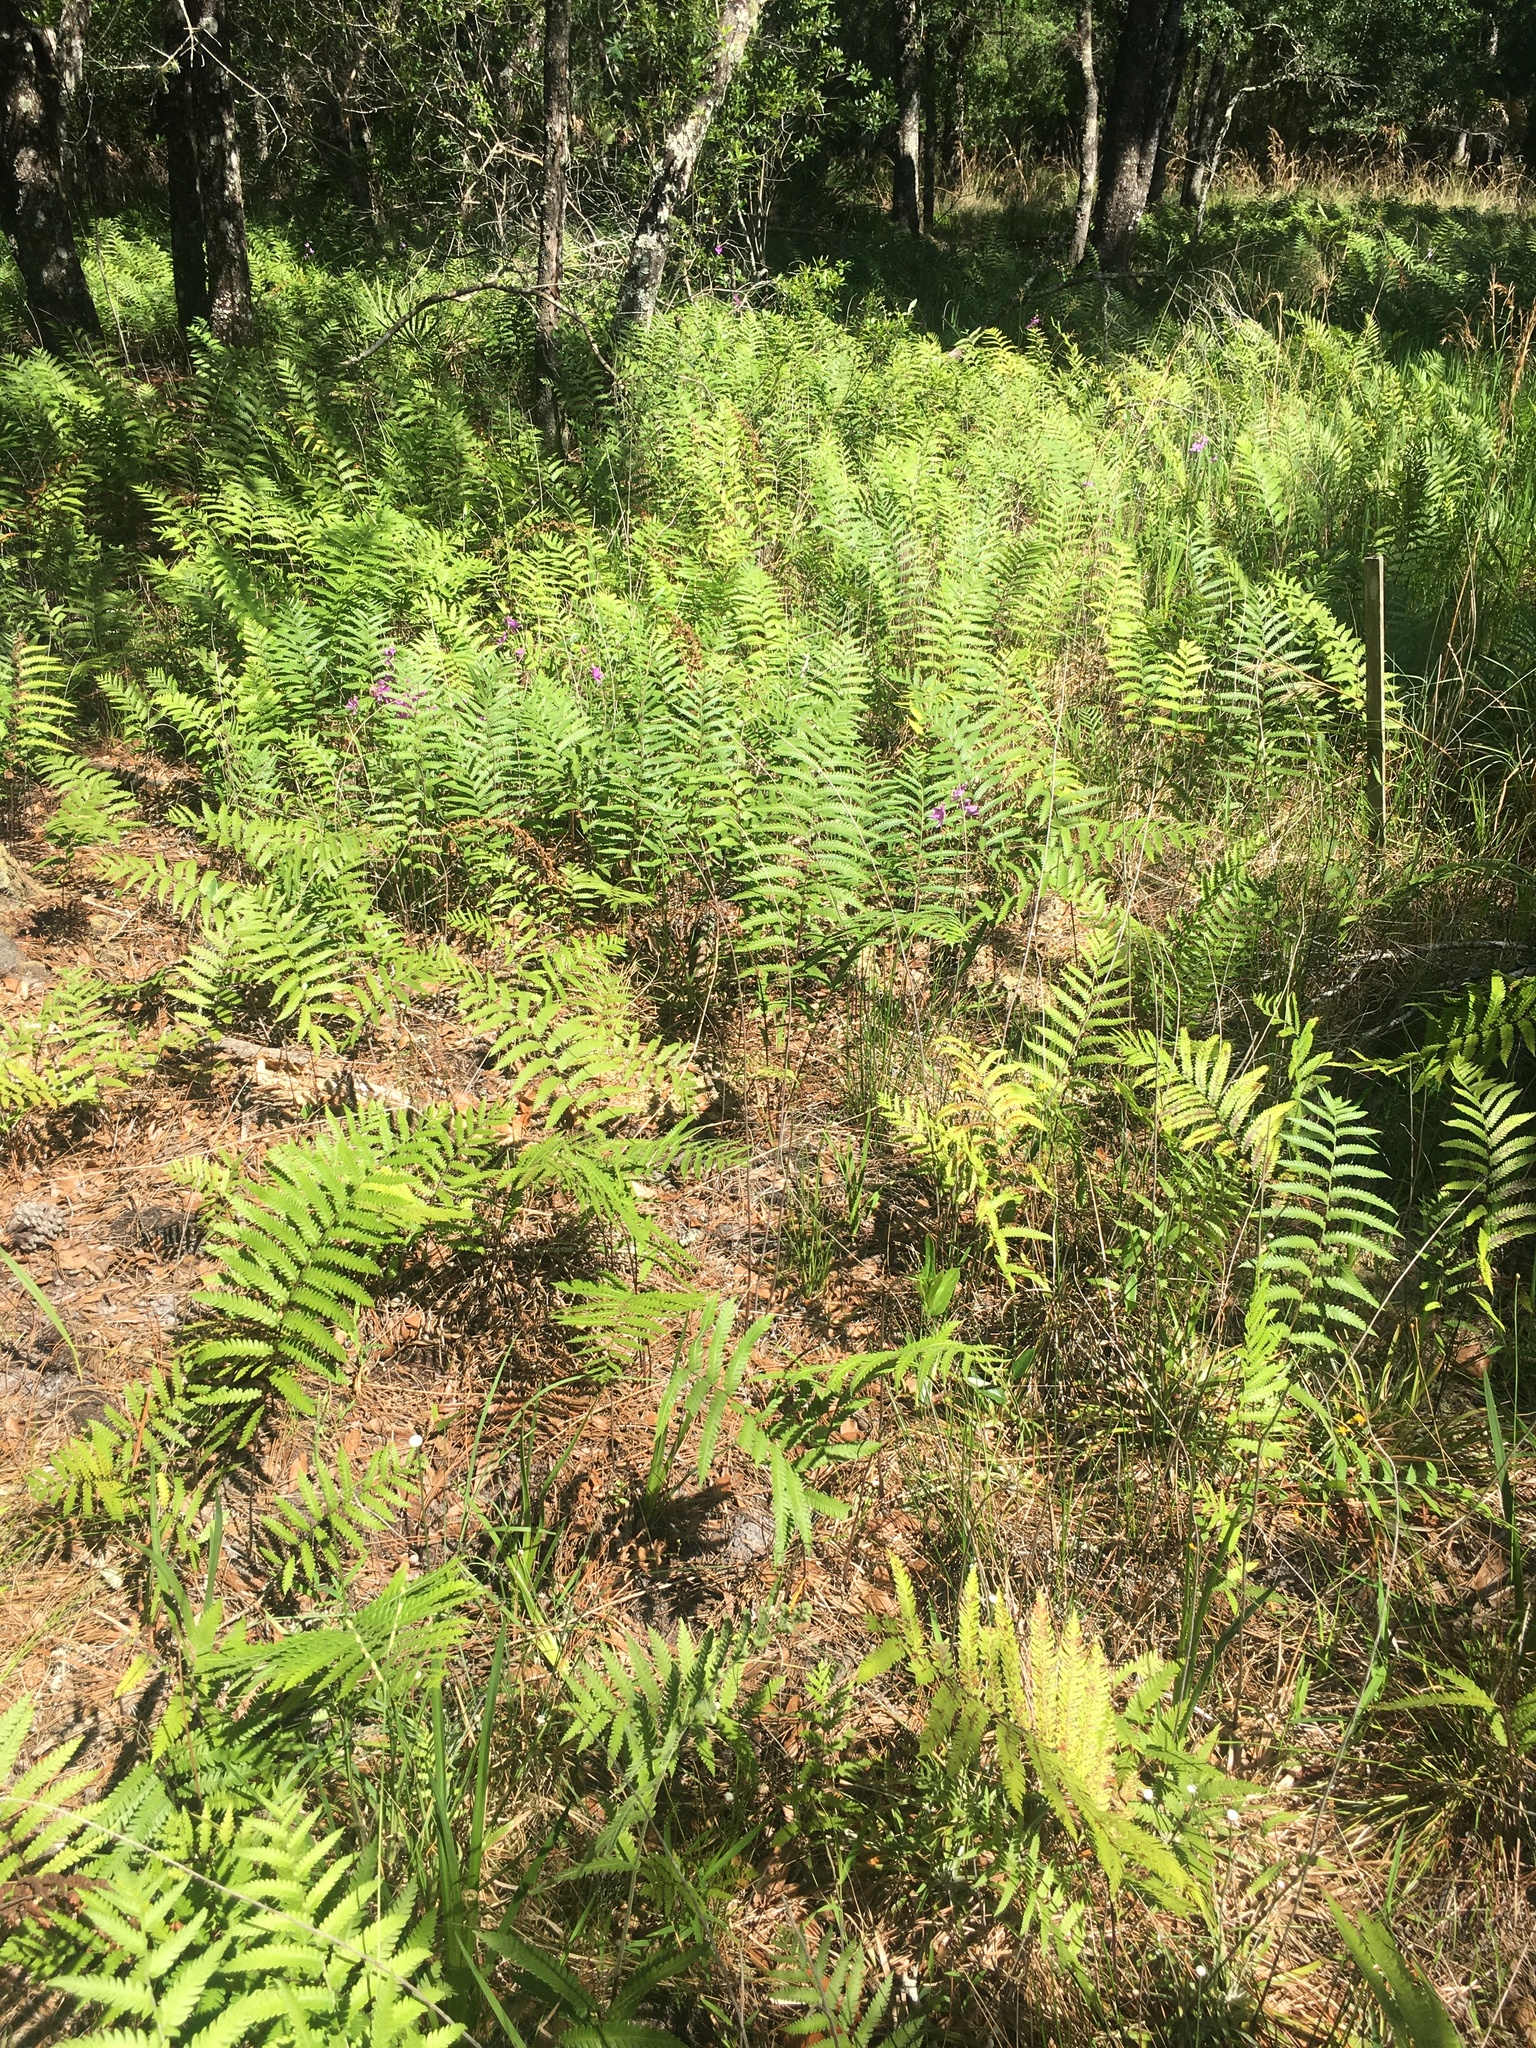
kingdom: Plantae
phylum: Tracheophyta
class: Polypodiopsida
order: Polypodiales
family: Blechnaceae
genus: Anchistea
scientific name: Anchistea virginica
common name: Virginia chain fern
